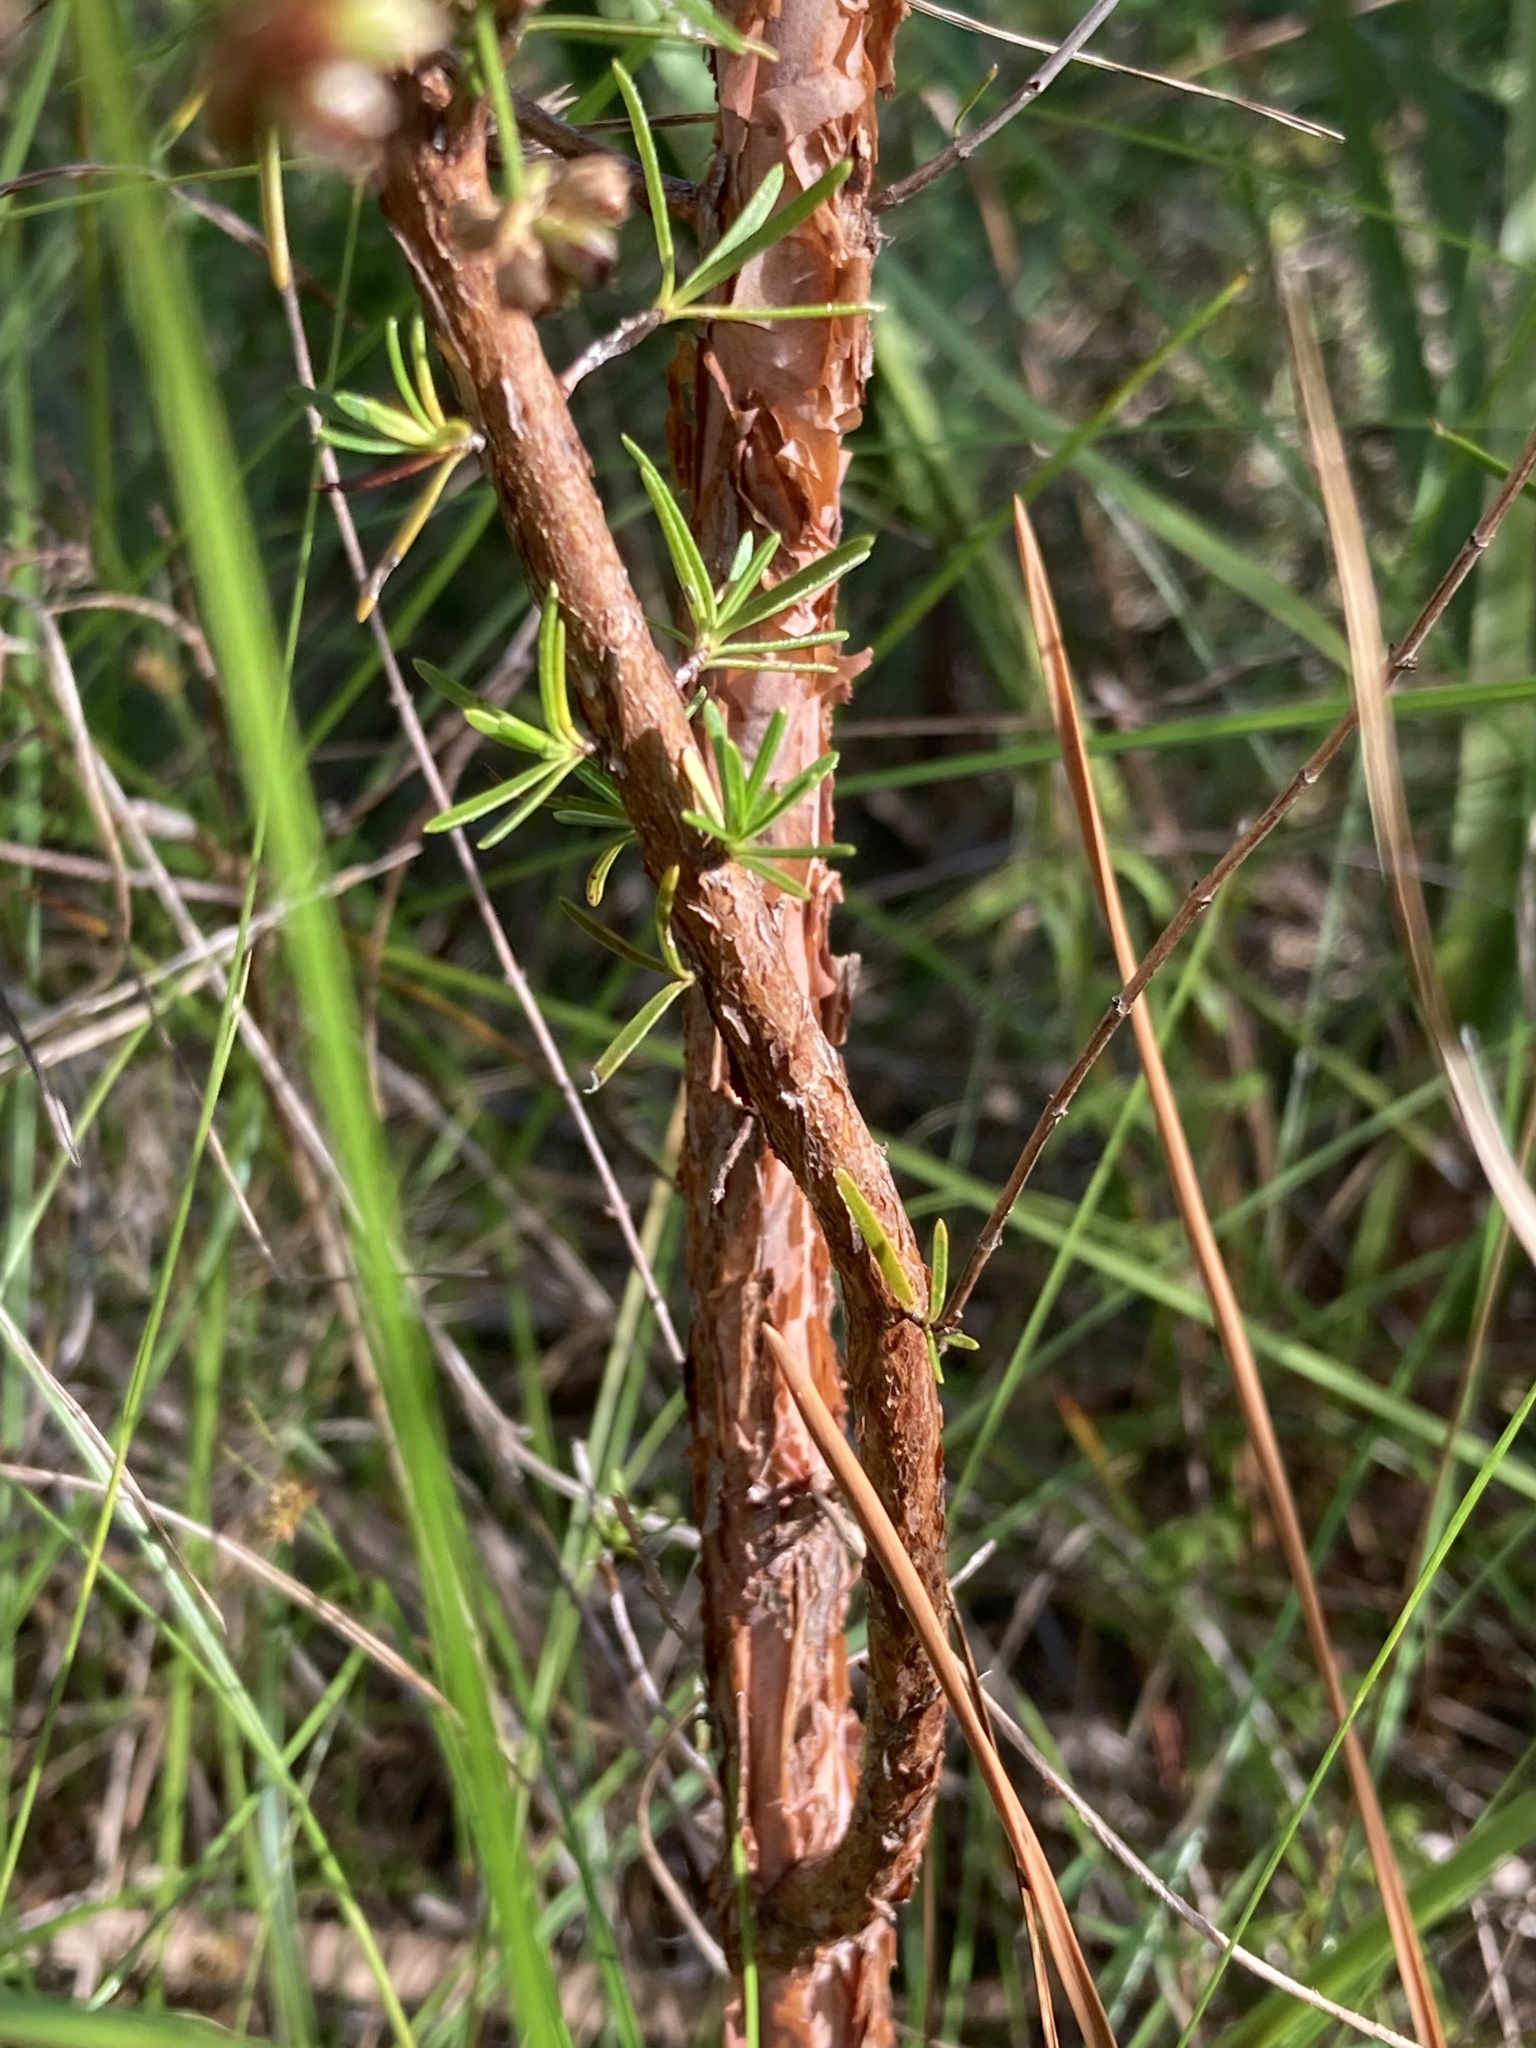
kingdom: Plantae
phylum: Tracheophyta
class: Magnoliopsida
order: Malpighiales
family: Hypericaceae
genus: Hypericum
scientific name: Hypericum fasciculatum
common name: Peelbark st. john's wort
